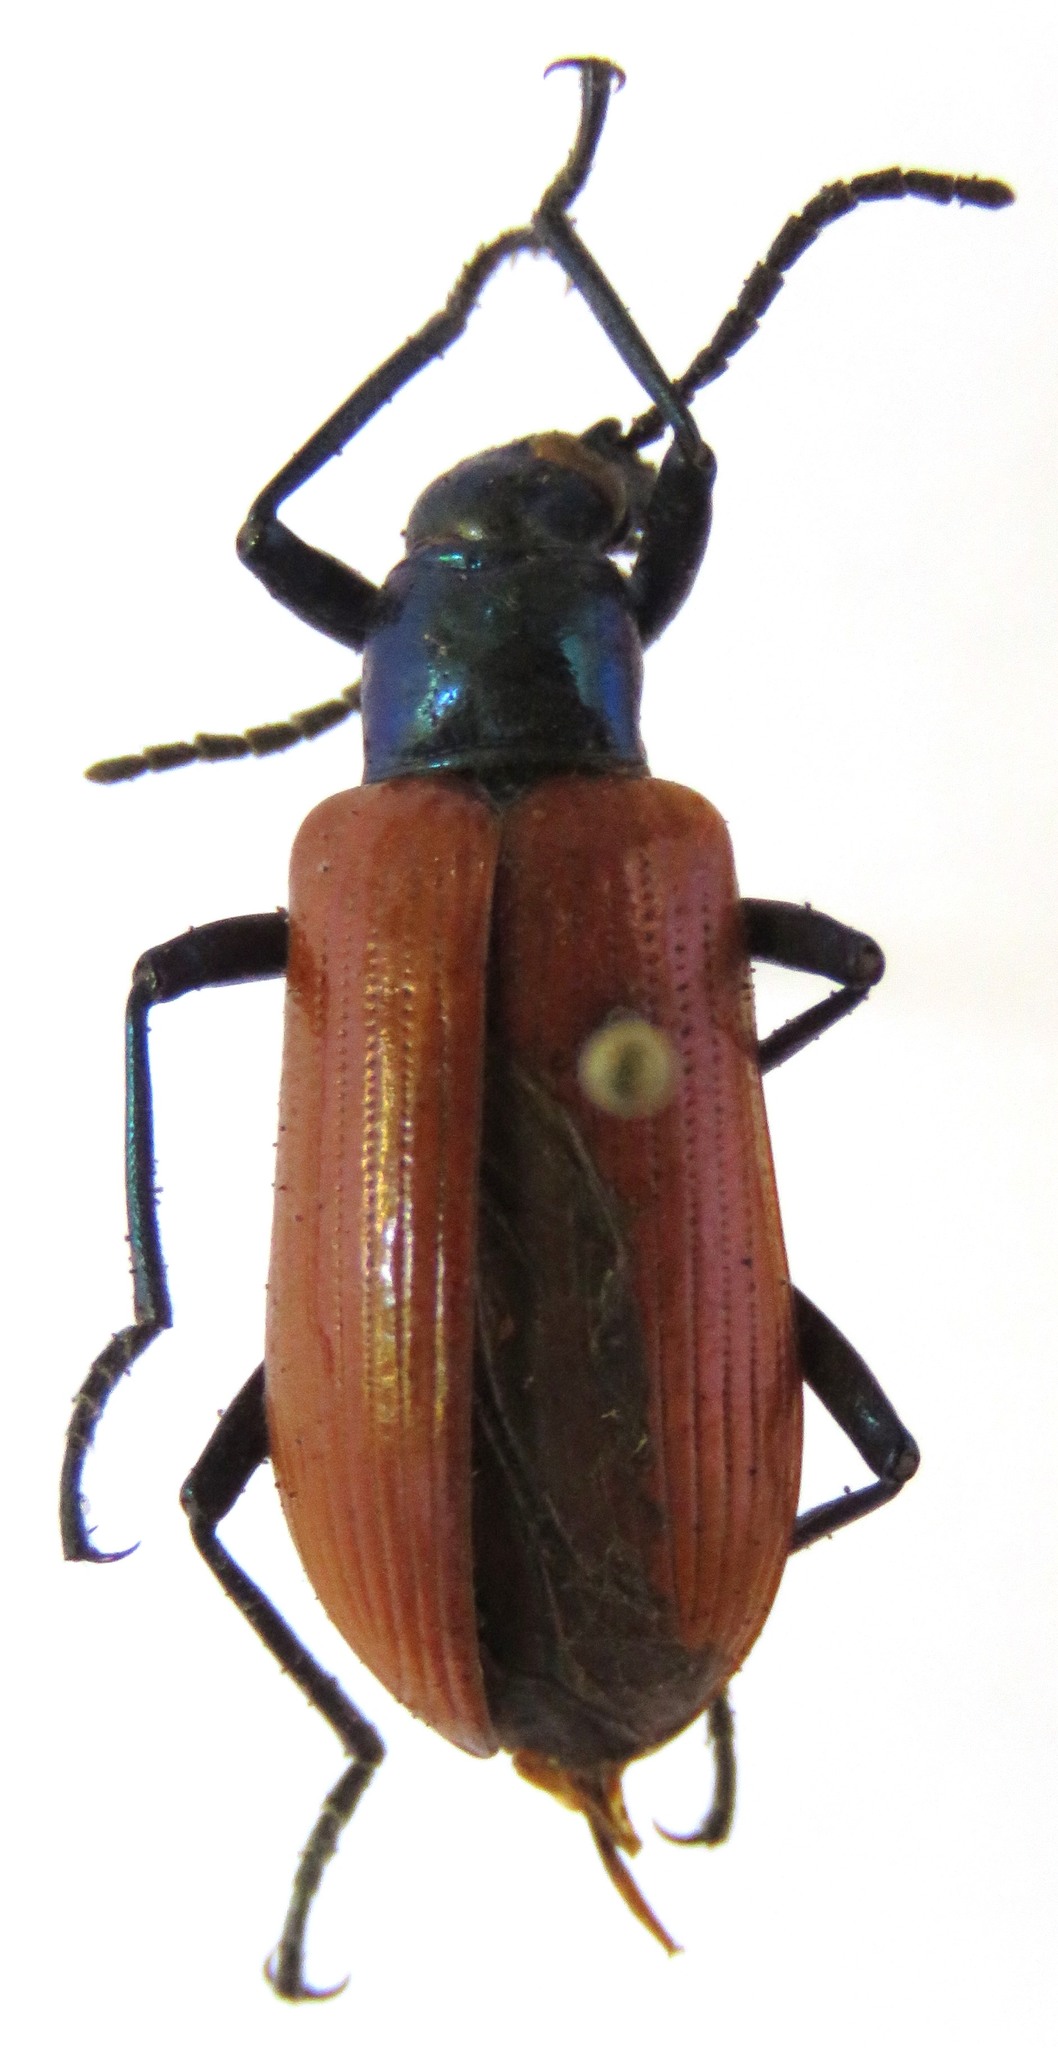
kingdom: Animalia
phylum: Arthropoda
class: Insecta
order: Coleoptera
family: Tenebrionidae
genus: Strongylium
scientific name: Strongylium
